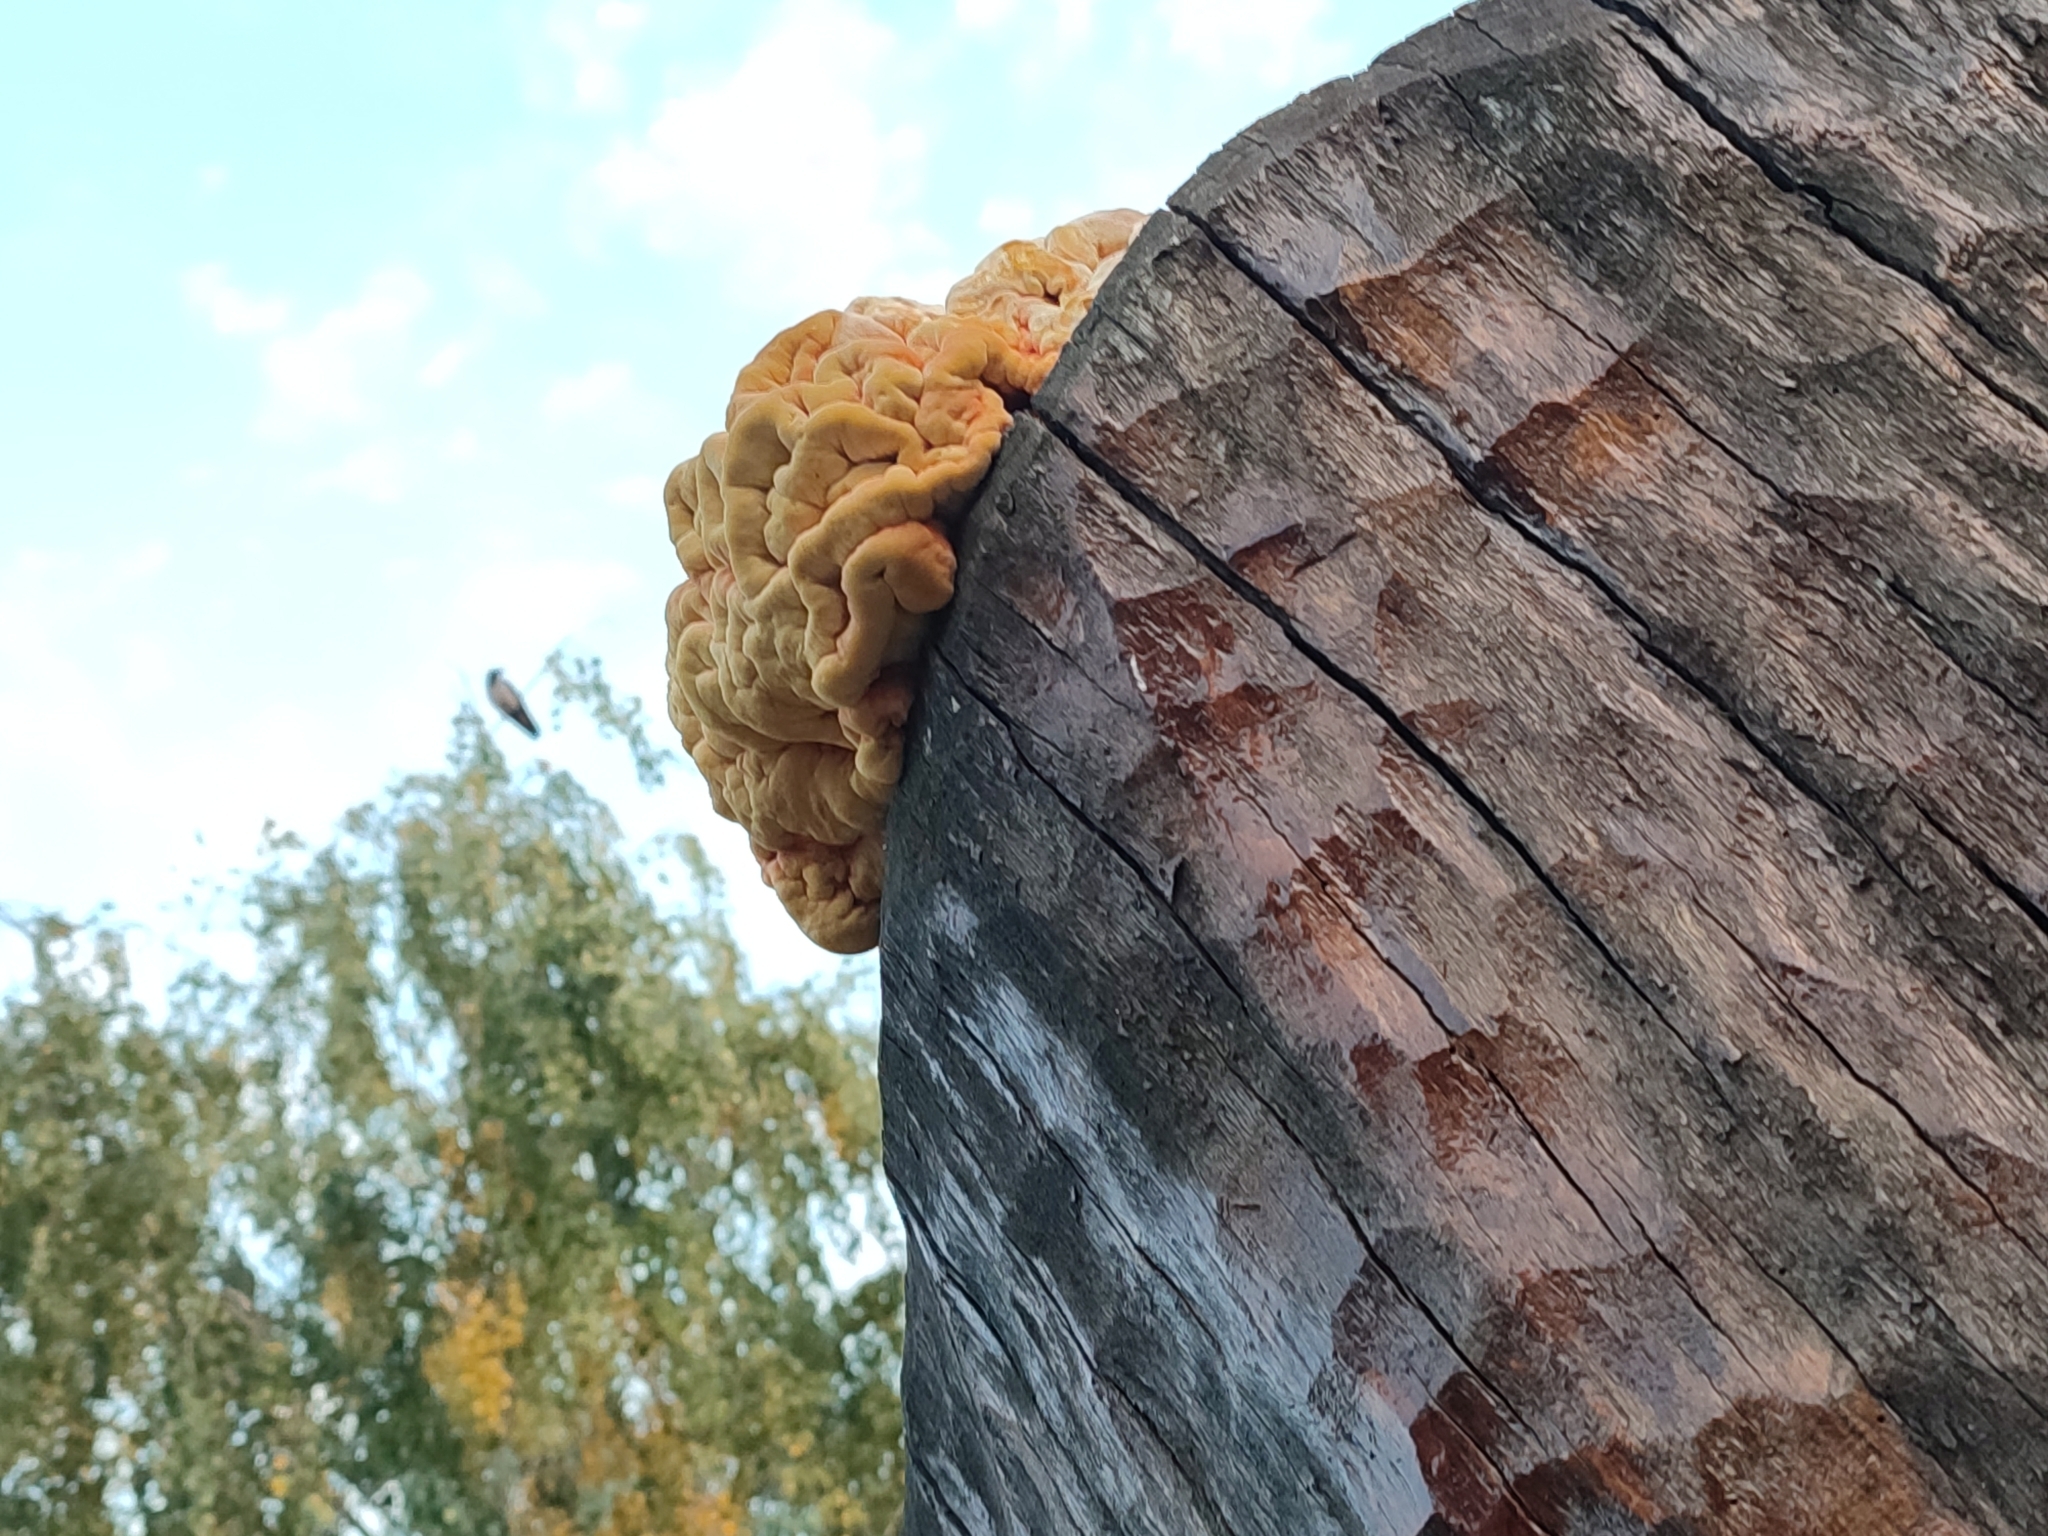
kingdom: Fungi
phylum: Basidiomycota
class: Agaricomycetes
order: Polyporales
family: Laetiporaceae
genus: Laetiporus
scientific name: Laetiporus sulphureus
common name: Chicken of the woods
